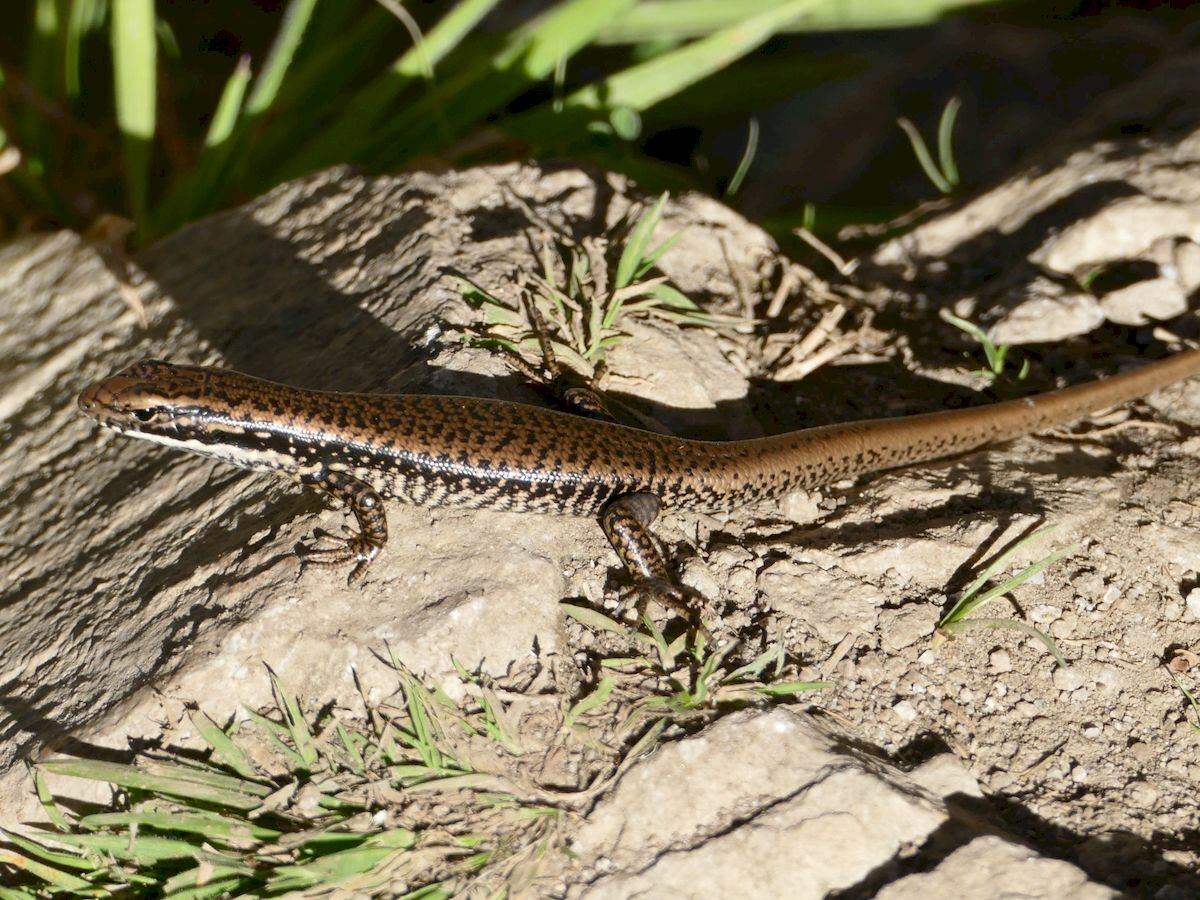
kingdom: Animalia
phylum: Chordata
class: Squamata
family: Scincidae
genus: Eulamprus
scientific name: Eulamprus heatwolei
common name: Warm-temperate water-skink
